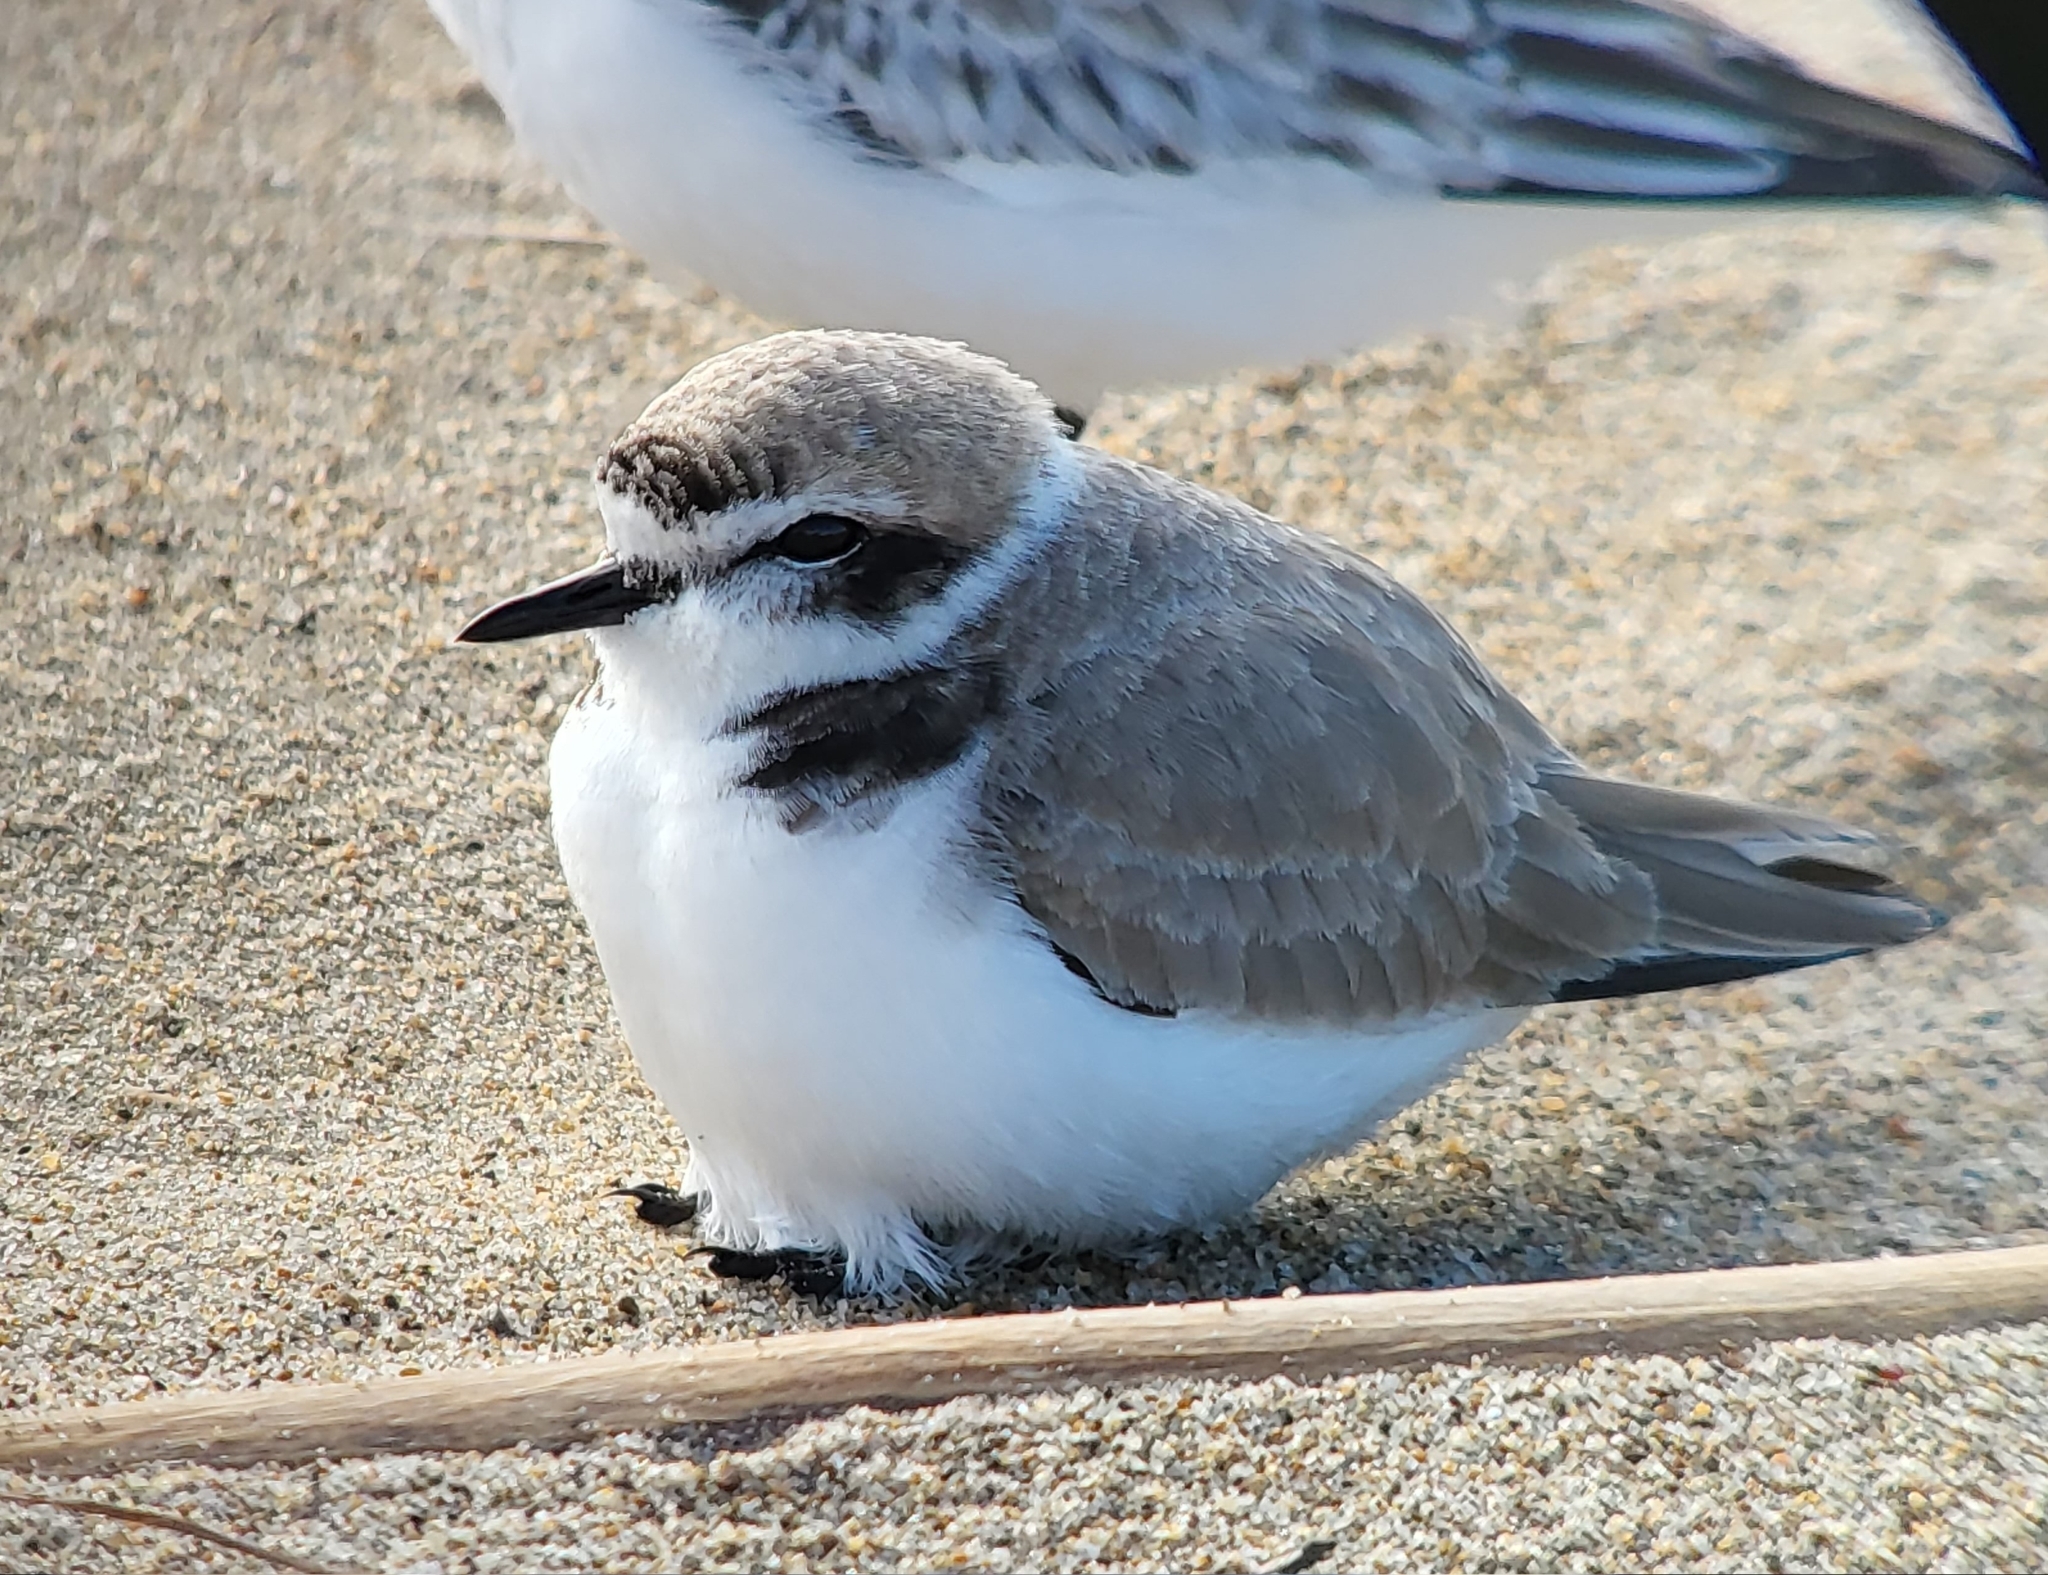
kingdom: Animalia
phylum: Chordata
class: Aves
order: Charadriiformes
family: Charadriidae
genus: Anarhynchus
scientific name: Anarhynchus
